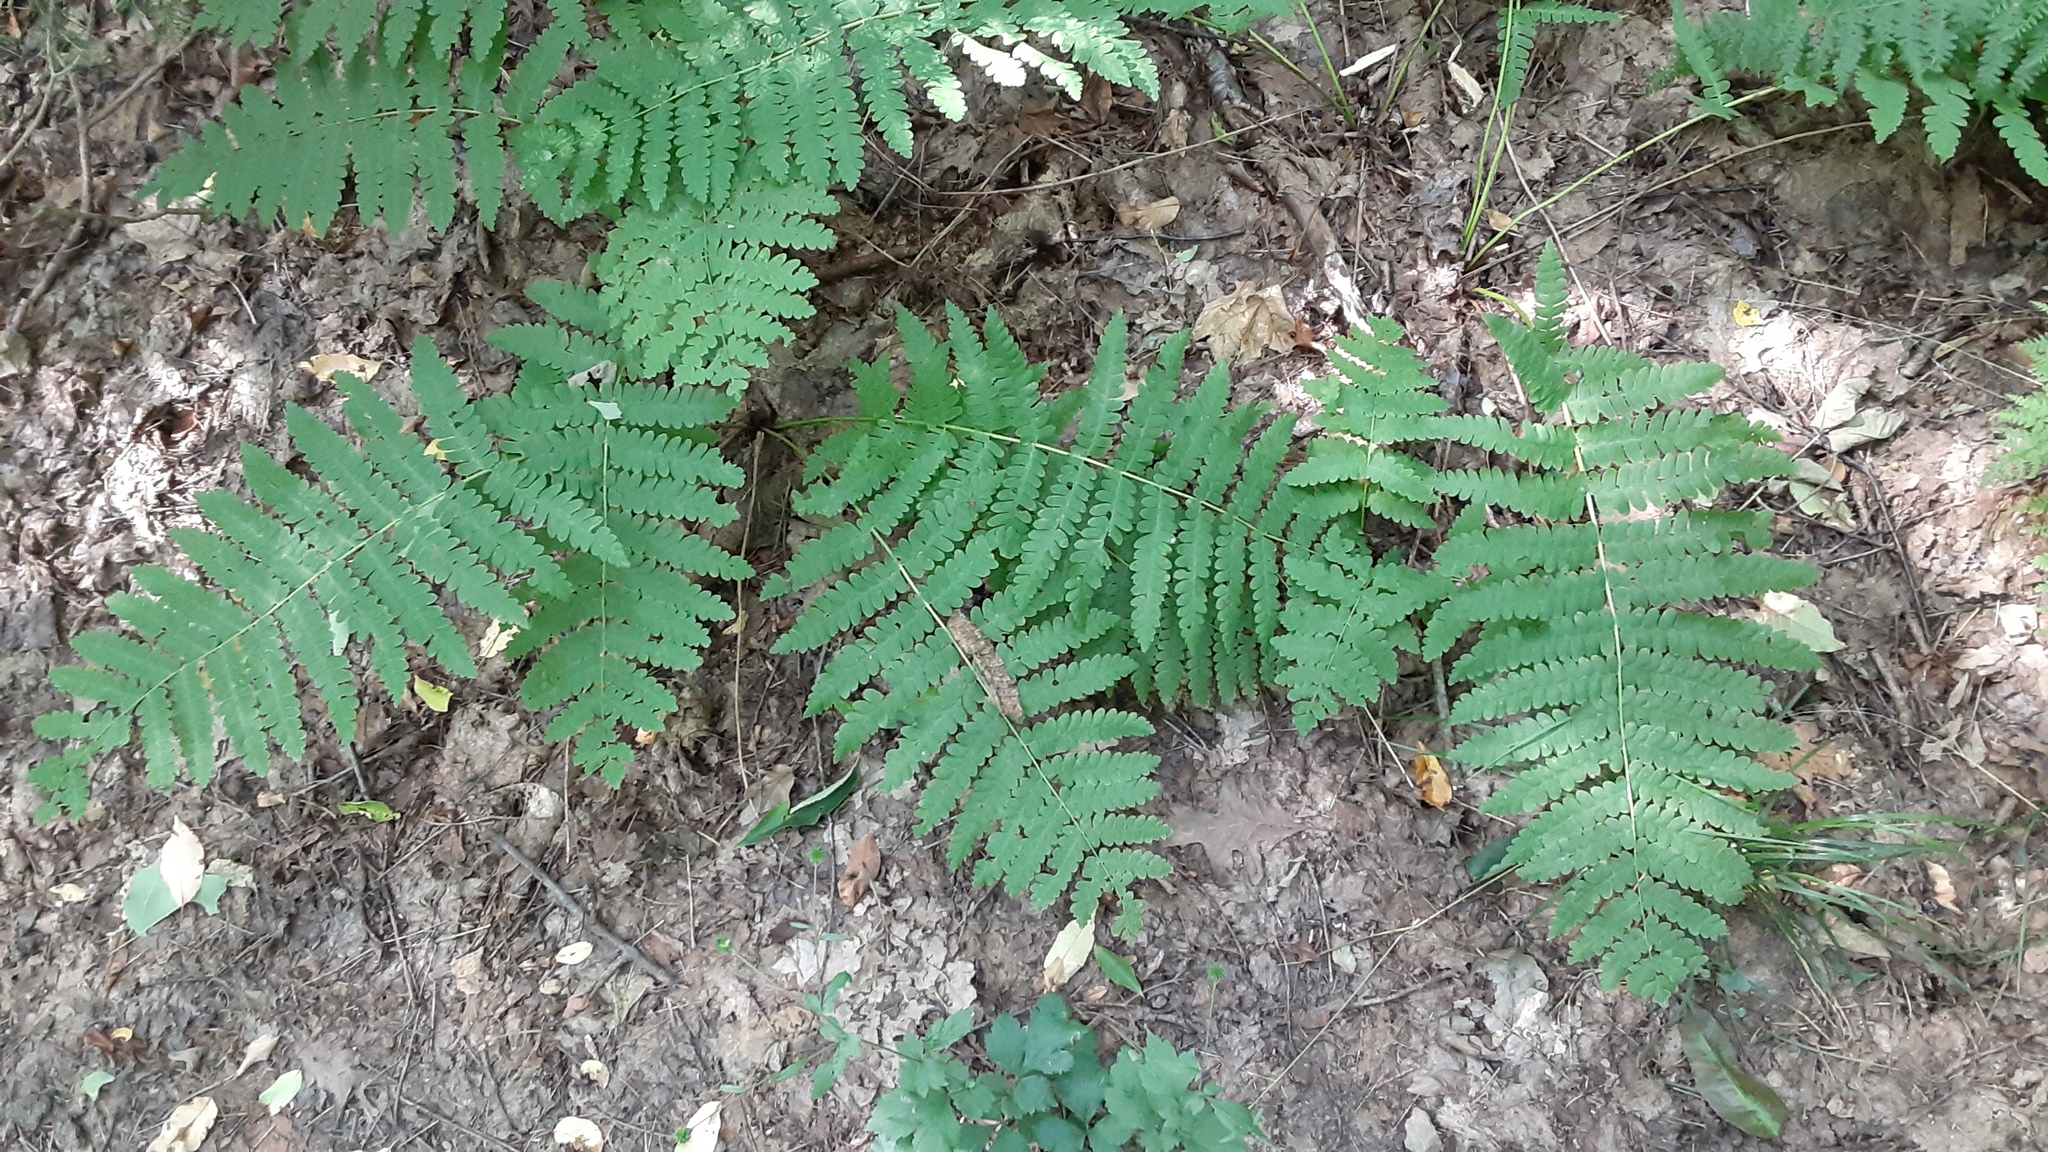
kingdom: Plantae
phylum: Tracheophyta
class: Polypodiopsida
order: Osmundales
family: Osmundaceae
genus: Claytosmunda
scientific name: Claytosmunda claytoniana
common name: Clayton's fern
